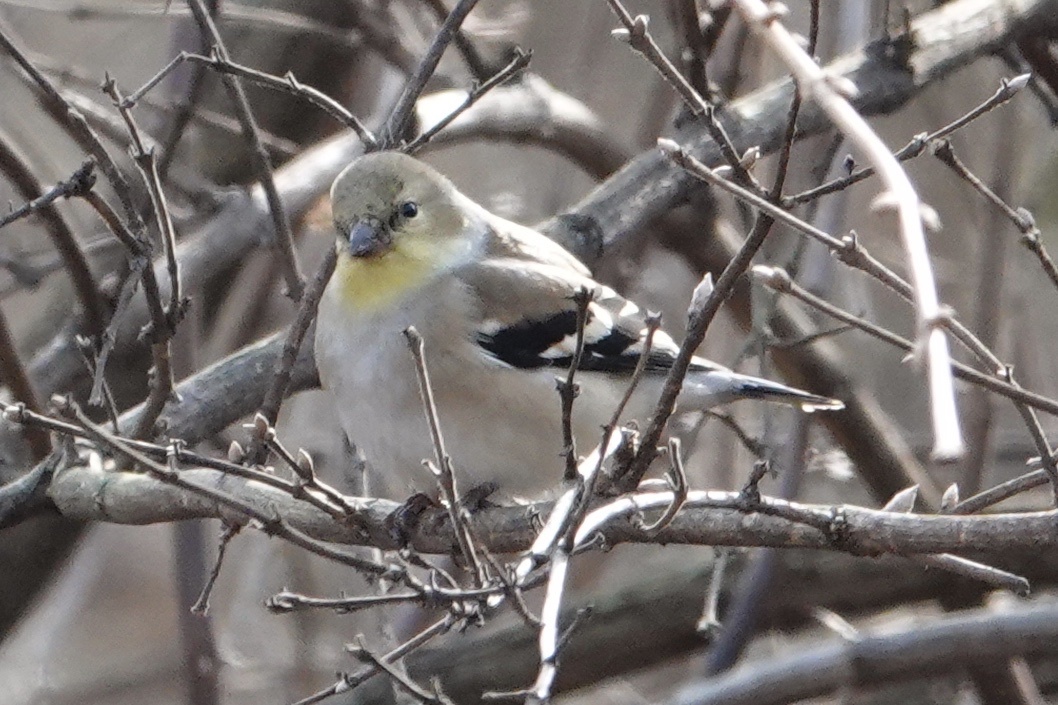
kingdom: Animalia
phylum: Chordata
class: Aves
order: Passeriformes
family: Fringillidae
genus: Spinus
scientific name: Spinus tristis
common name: American goldfinch
